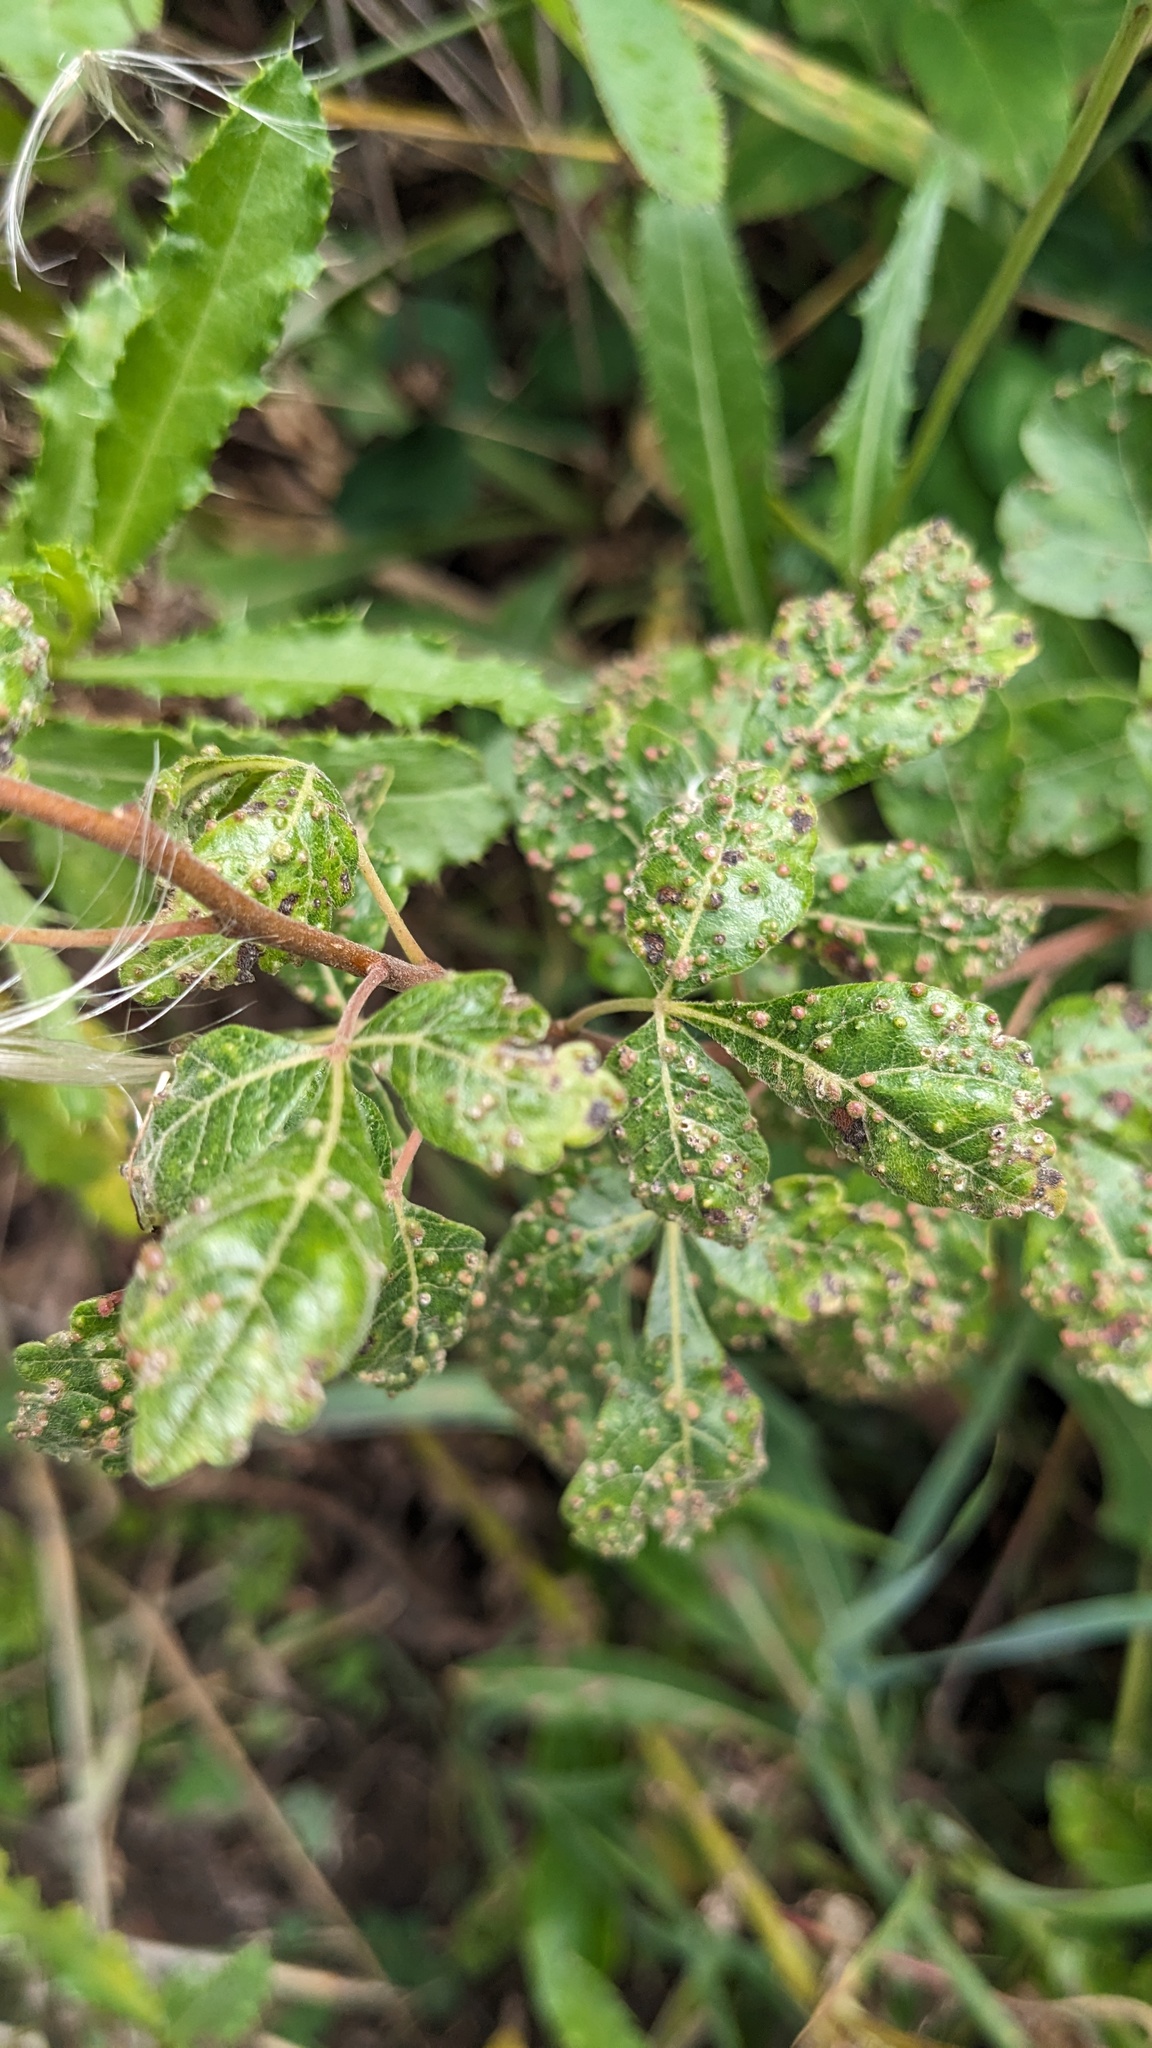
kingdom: Animalia
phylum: Arthropoda
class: Arachnida
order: Trombidiformes
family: Eriophyidae
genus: Aculops
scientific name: Aculops
